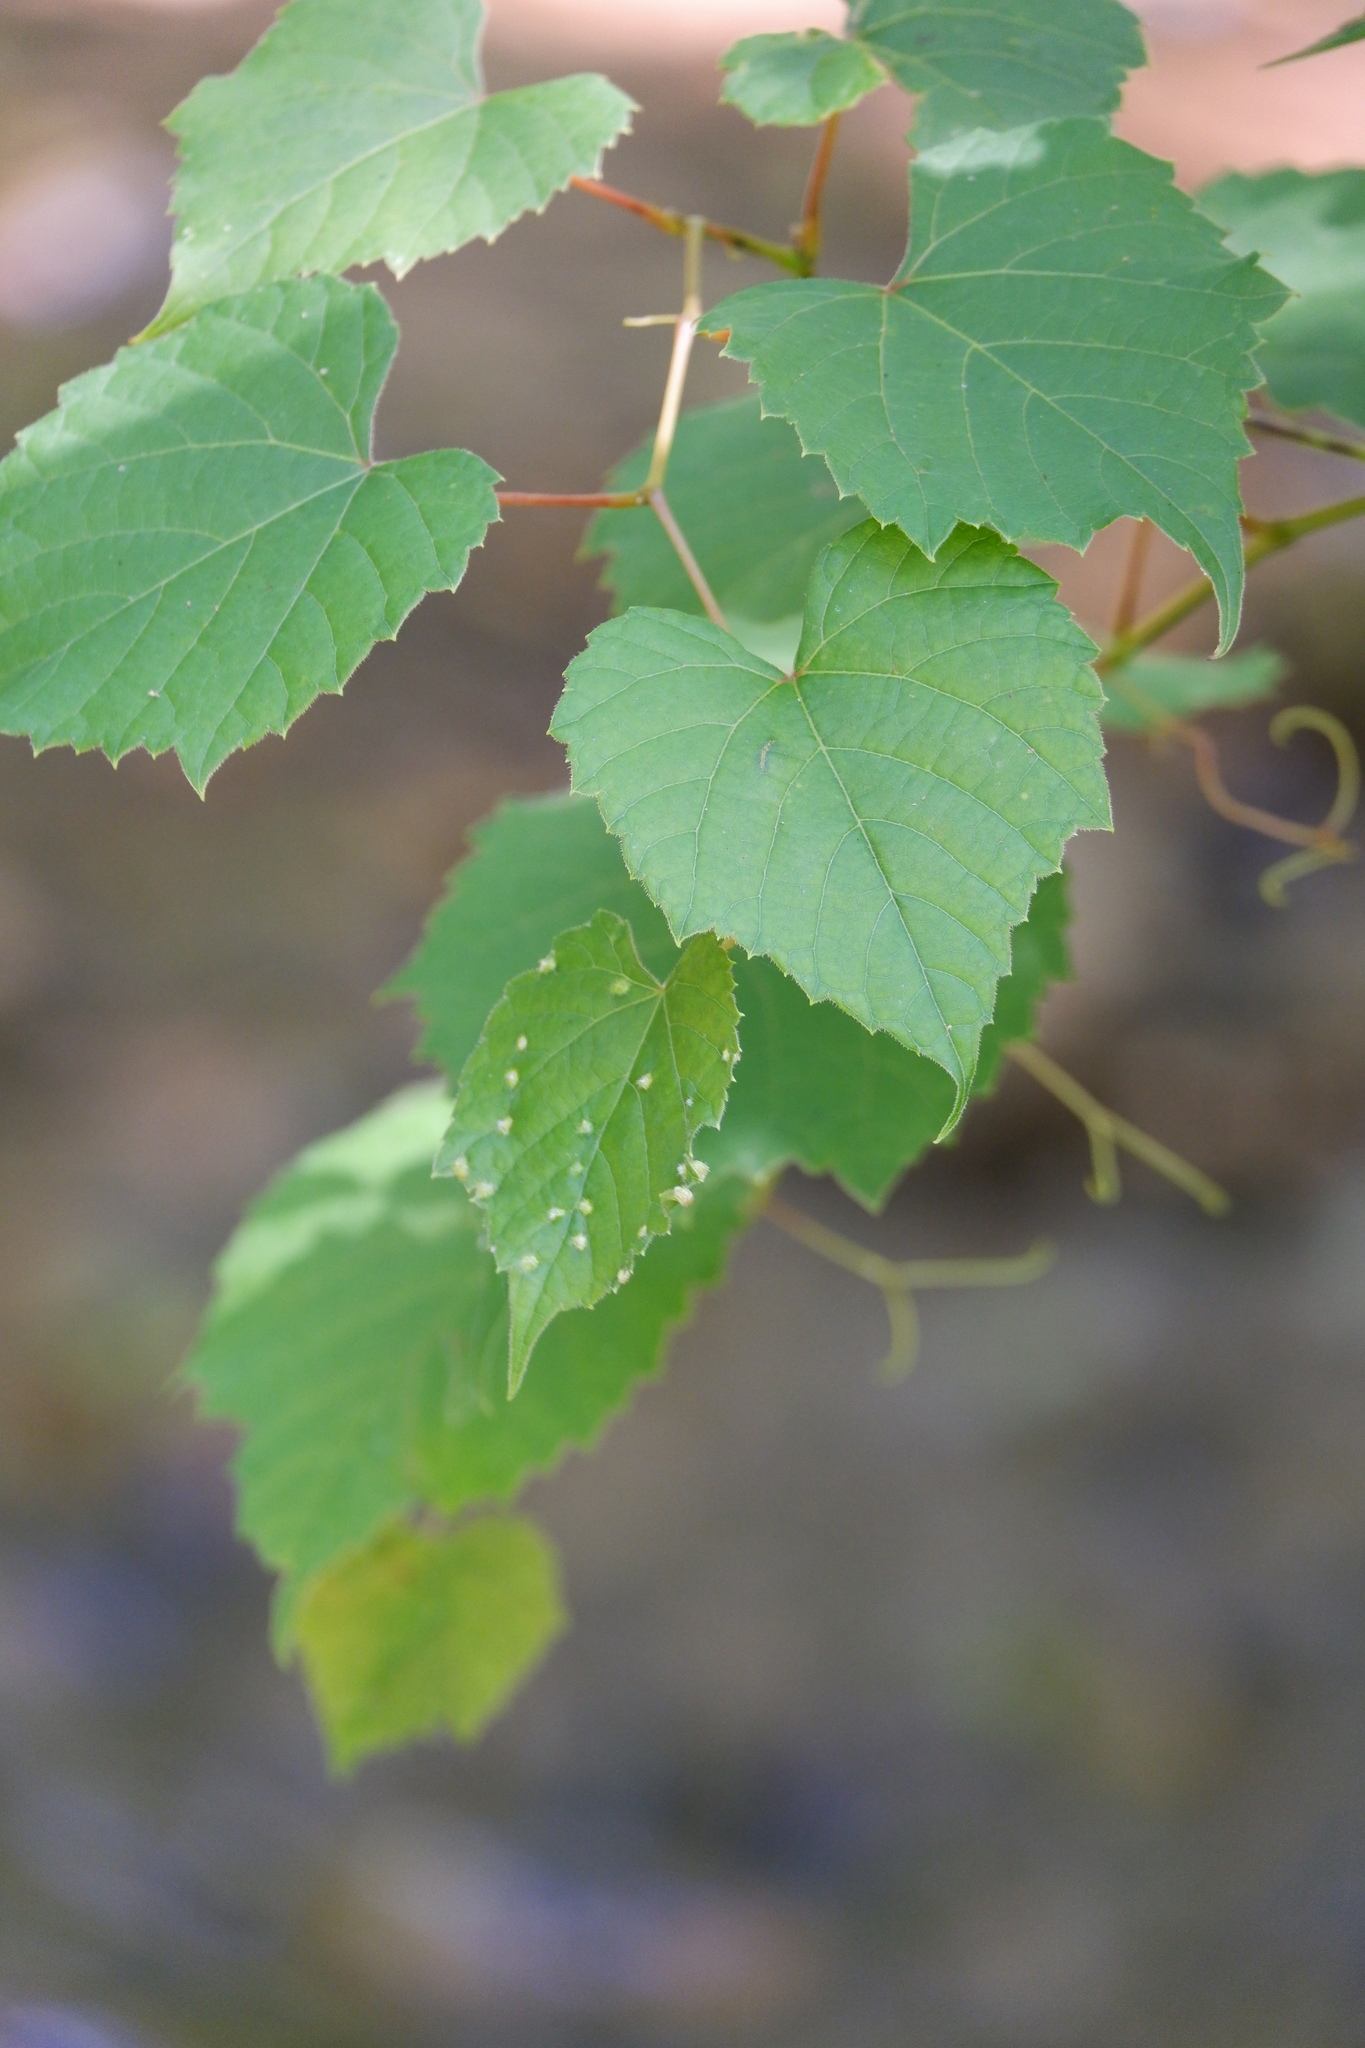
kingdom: Animalia
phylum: Arthropoda
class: Insecta
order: Hemiptera
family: Phylloxeridae
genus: Daktulosphaira
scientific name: Daktulosphaira vitifoliae
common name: Grape phylloxera
